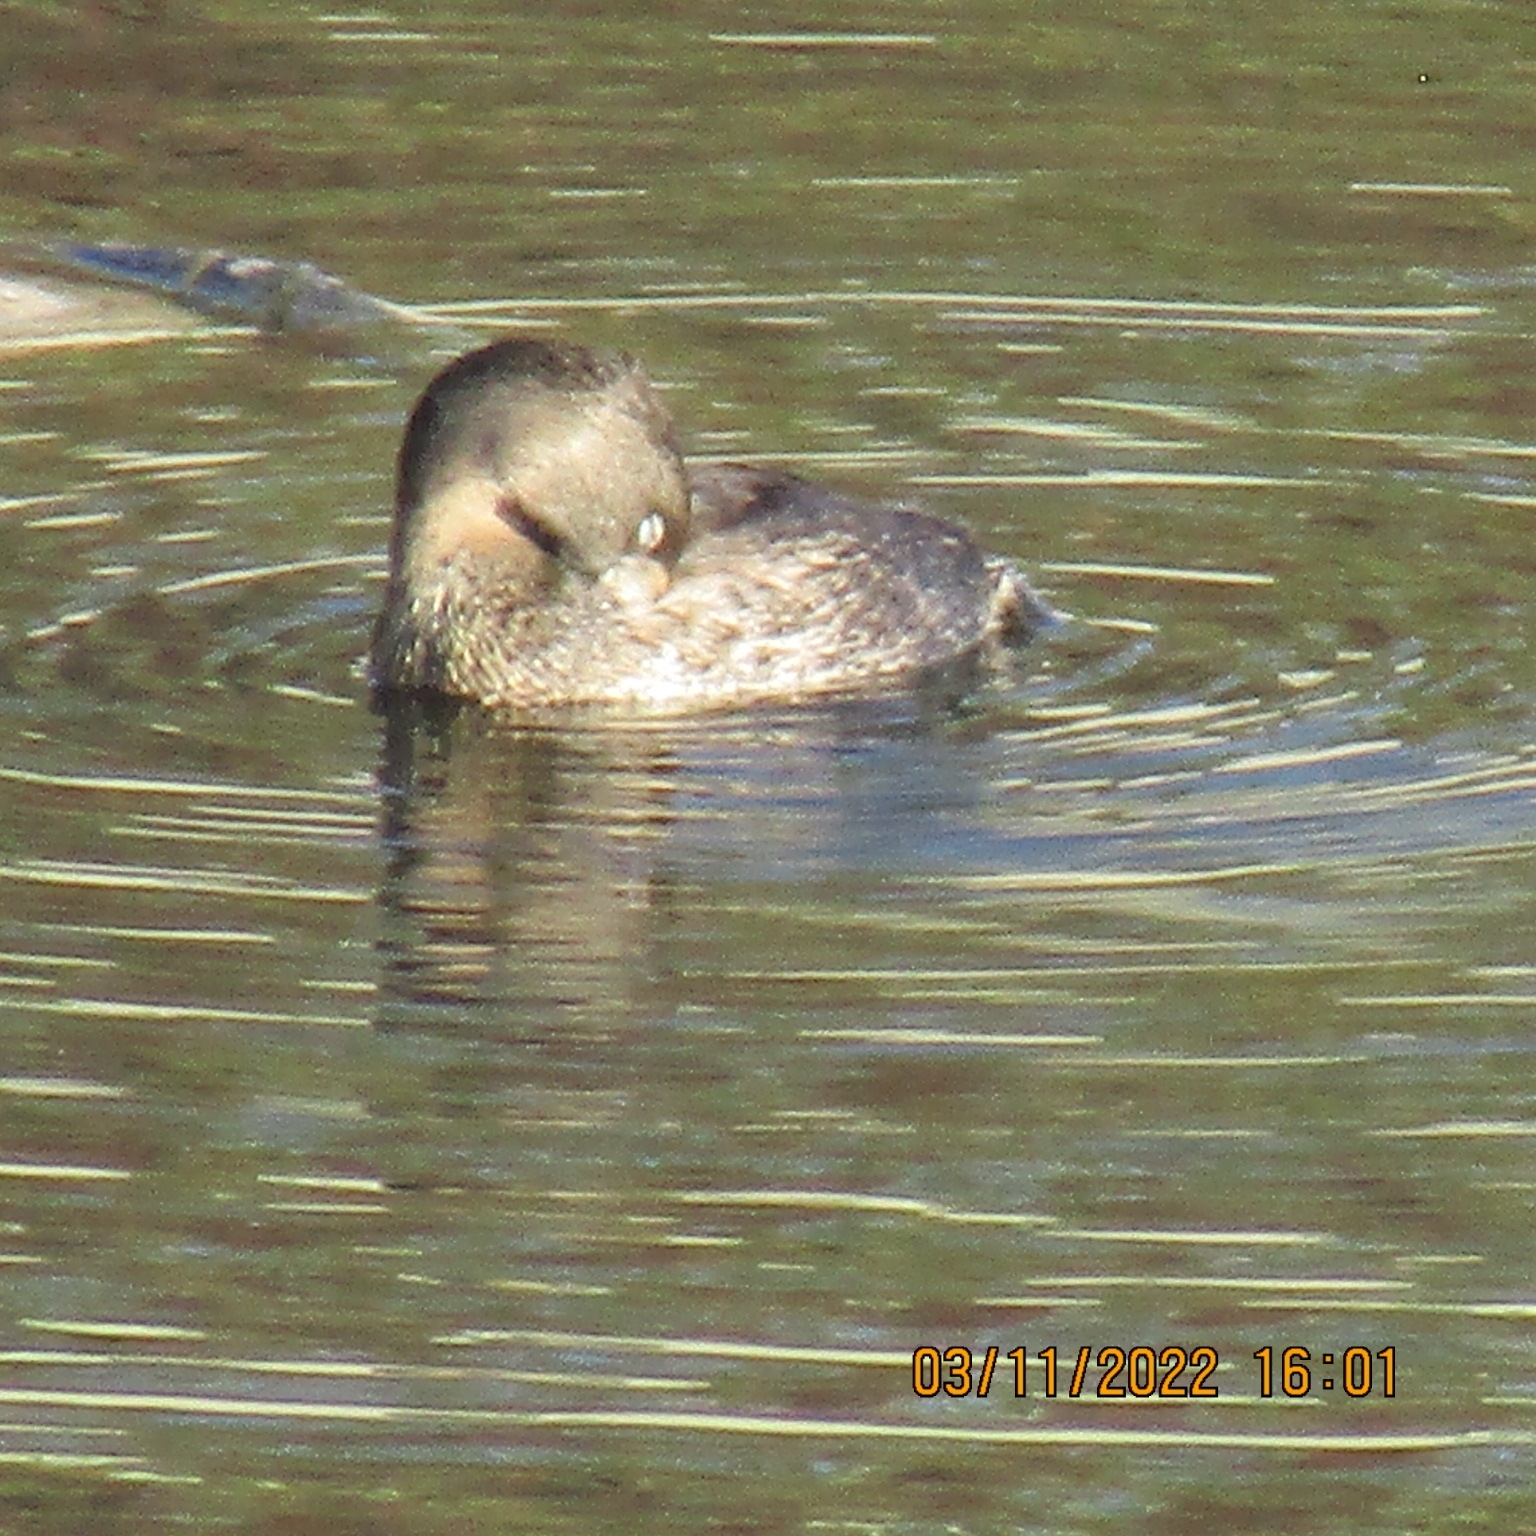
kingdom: Animalia
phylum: Chordata
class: Aves
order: Podicipediformes
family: Podicipedidae
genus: Podilymbus
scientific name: Podilymbus podiceps
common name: Pied-billed grebe
